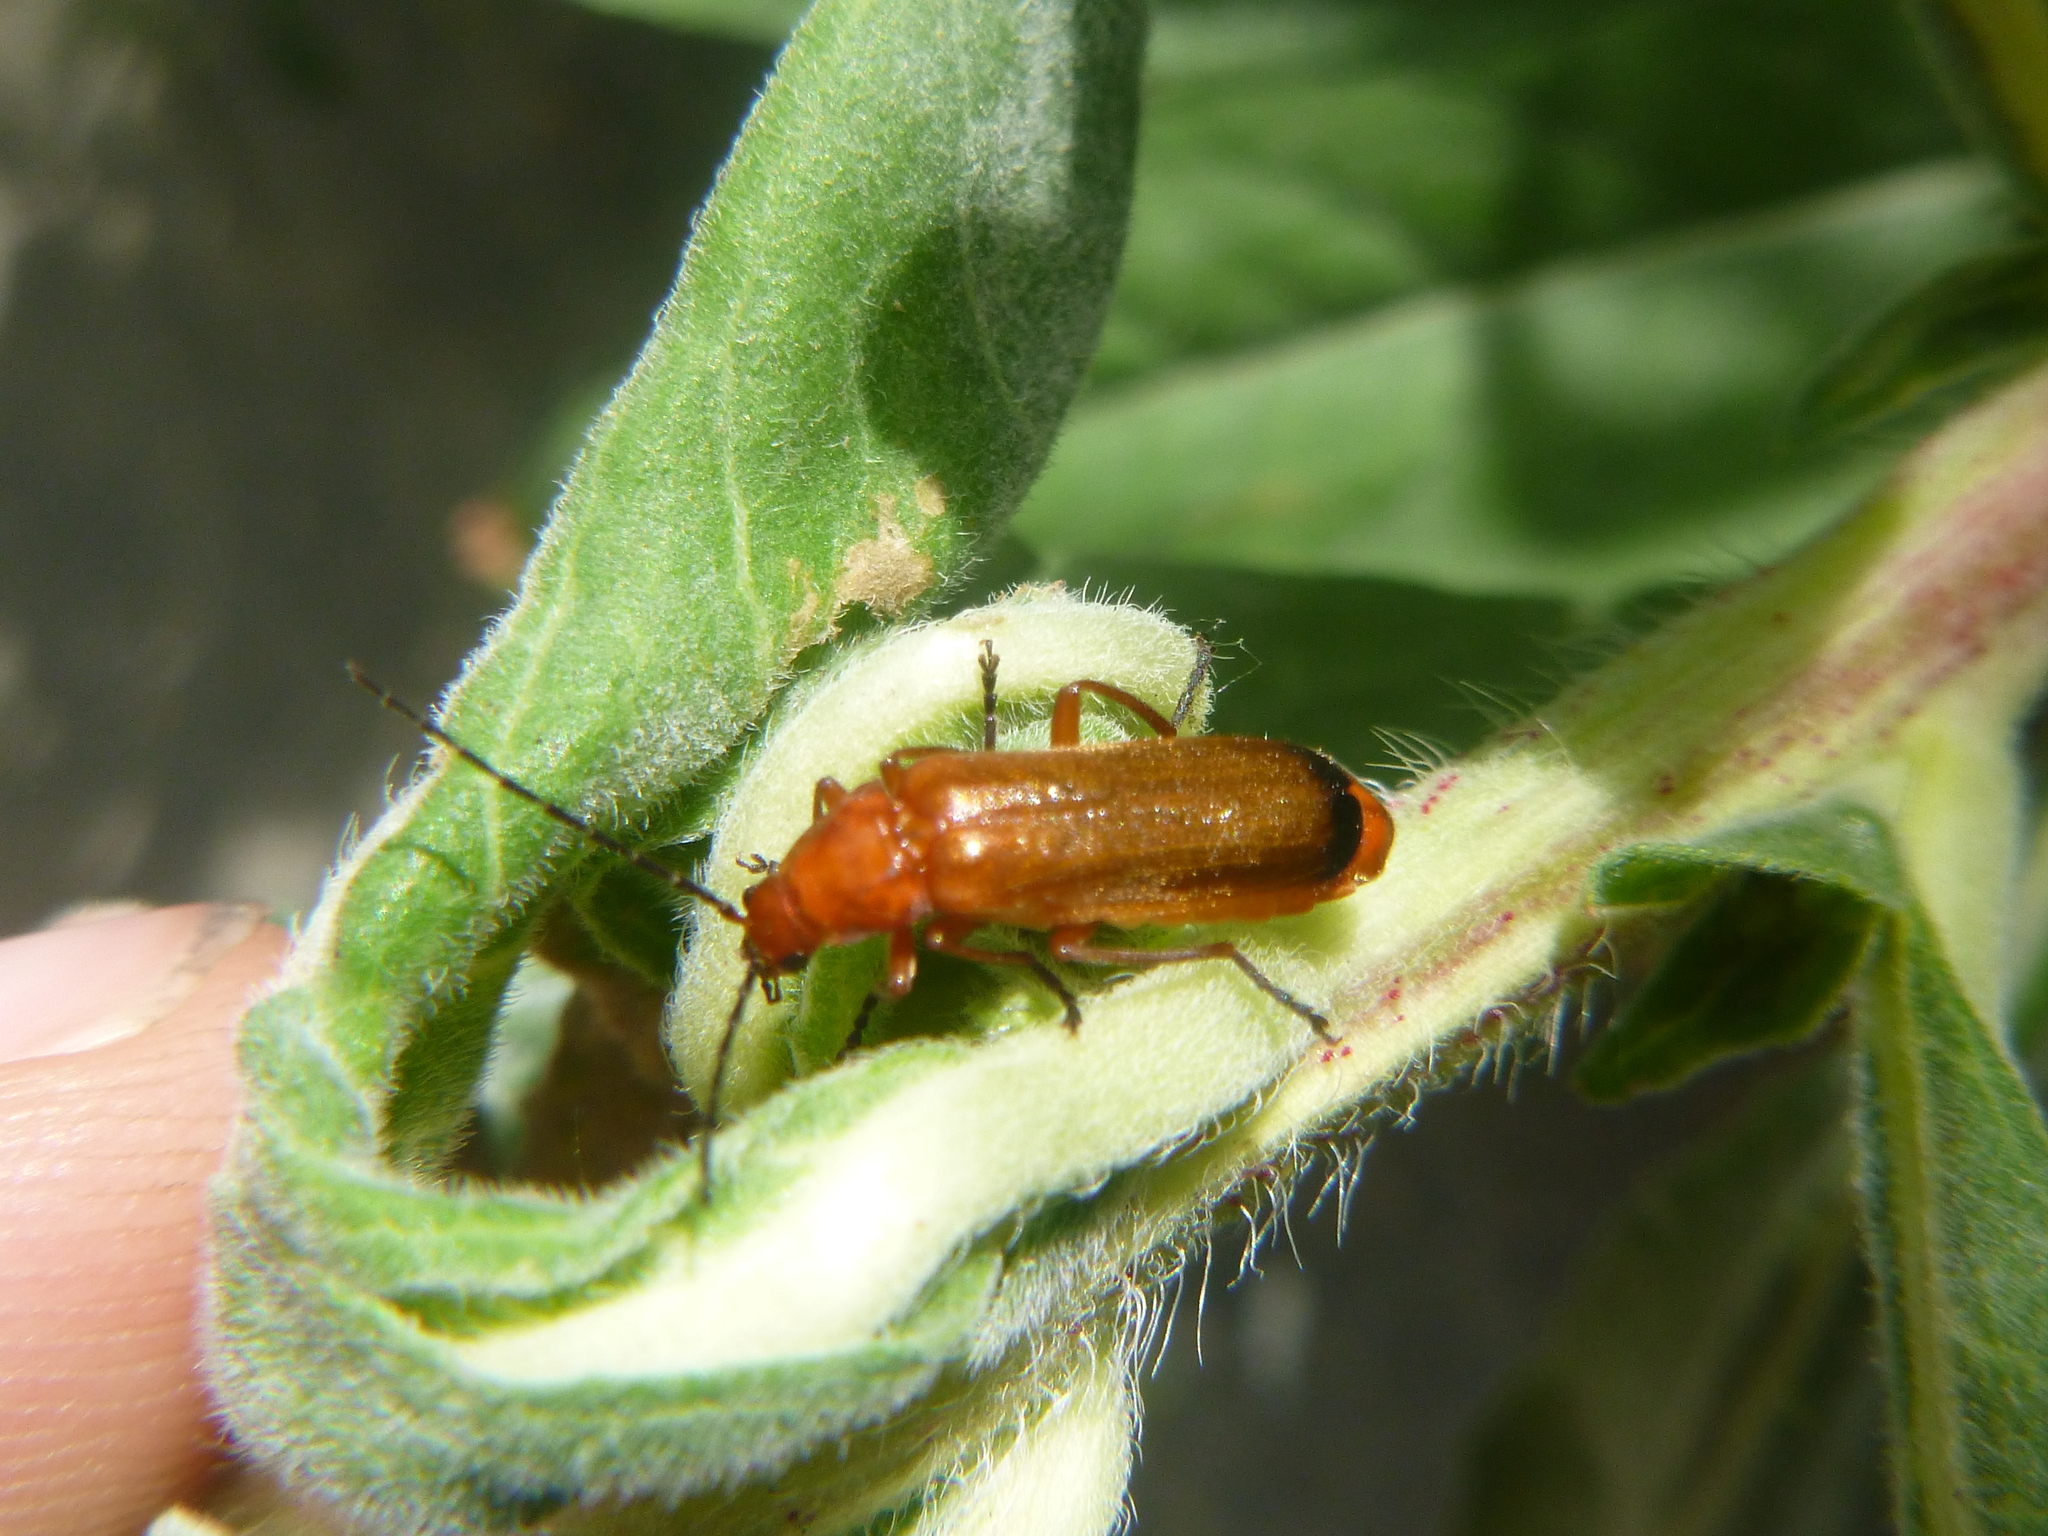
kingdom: Animalia
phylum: Arthropoda
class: Insecta
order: Coleoptera
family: Cantharidae
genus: Rhagonycha
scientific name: Rhagonycha fulva
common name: Common red soldier beetle
